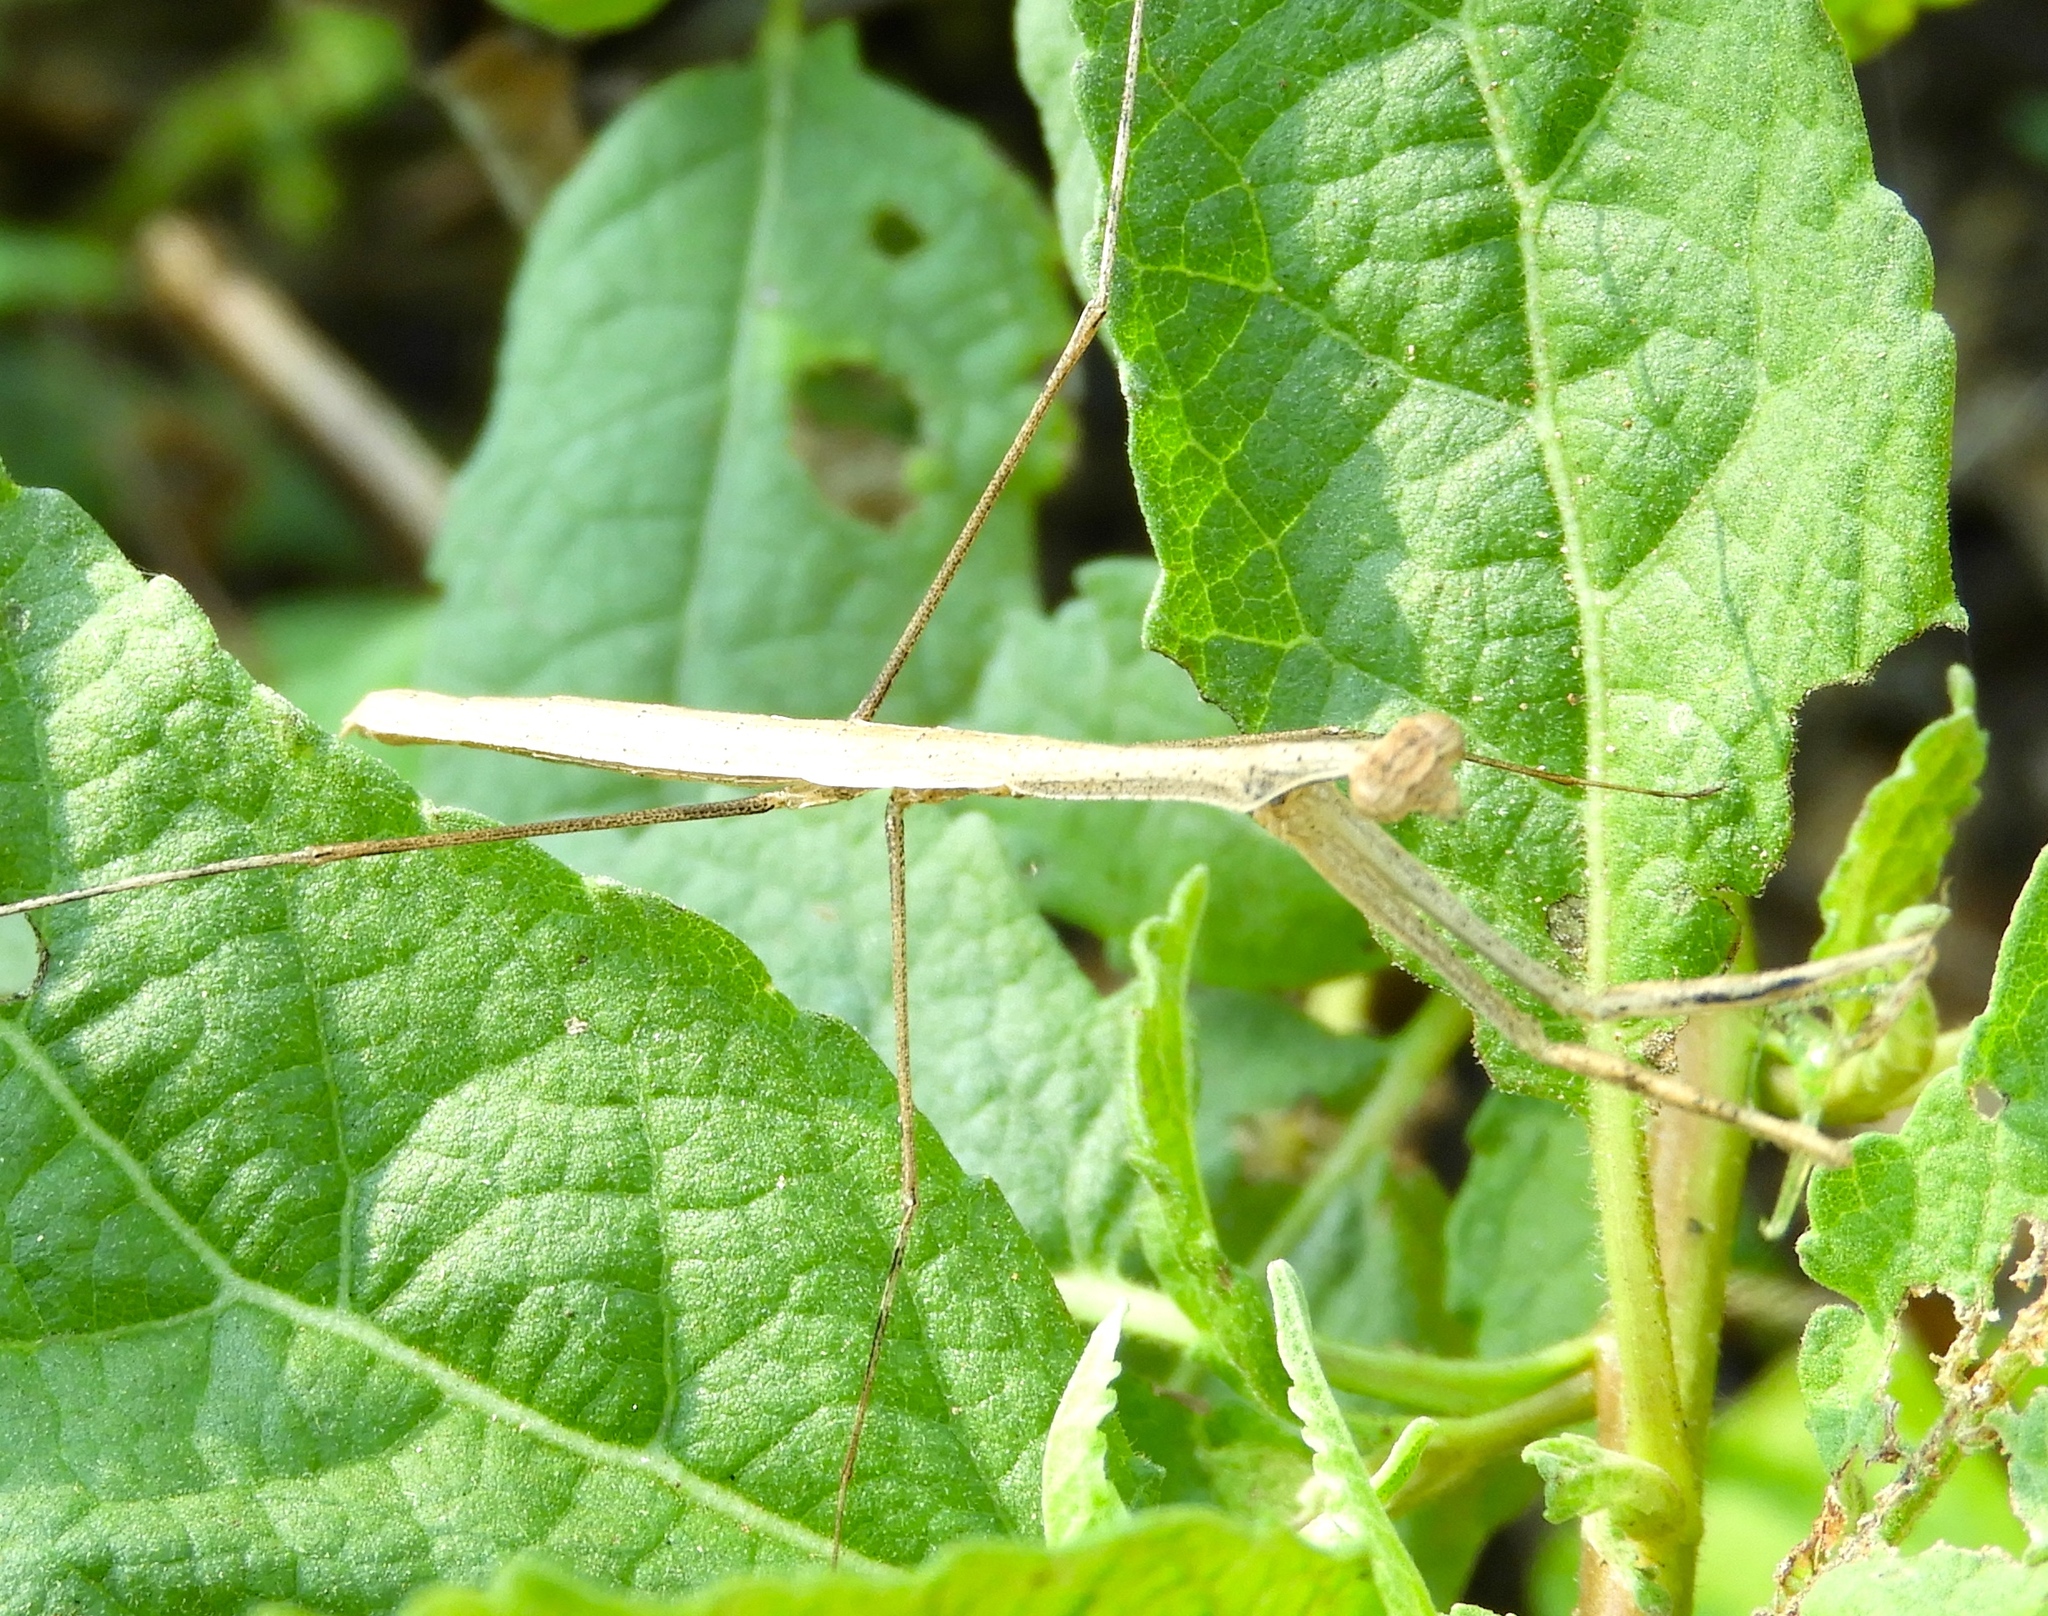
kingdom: Animalia
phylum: Arthropoda
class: Insecta
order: Mantodea
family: Thespidae
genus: Bistanta
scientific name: Bistanta mexicana
